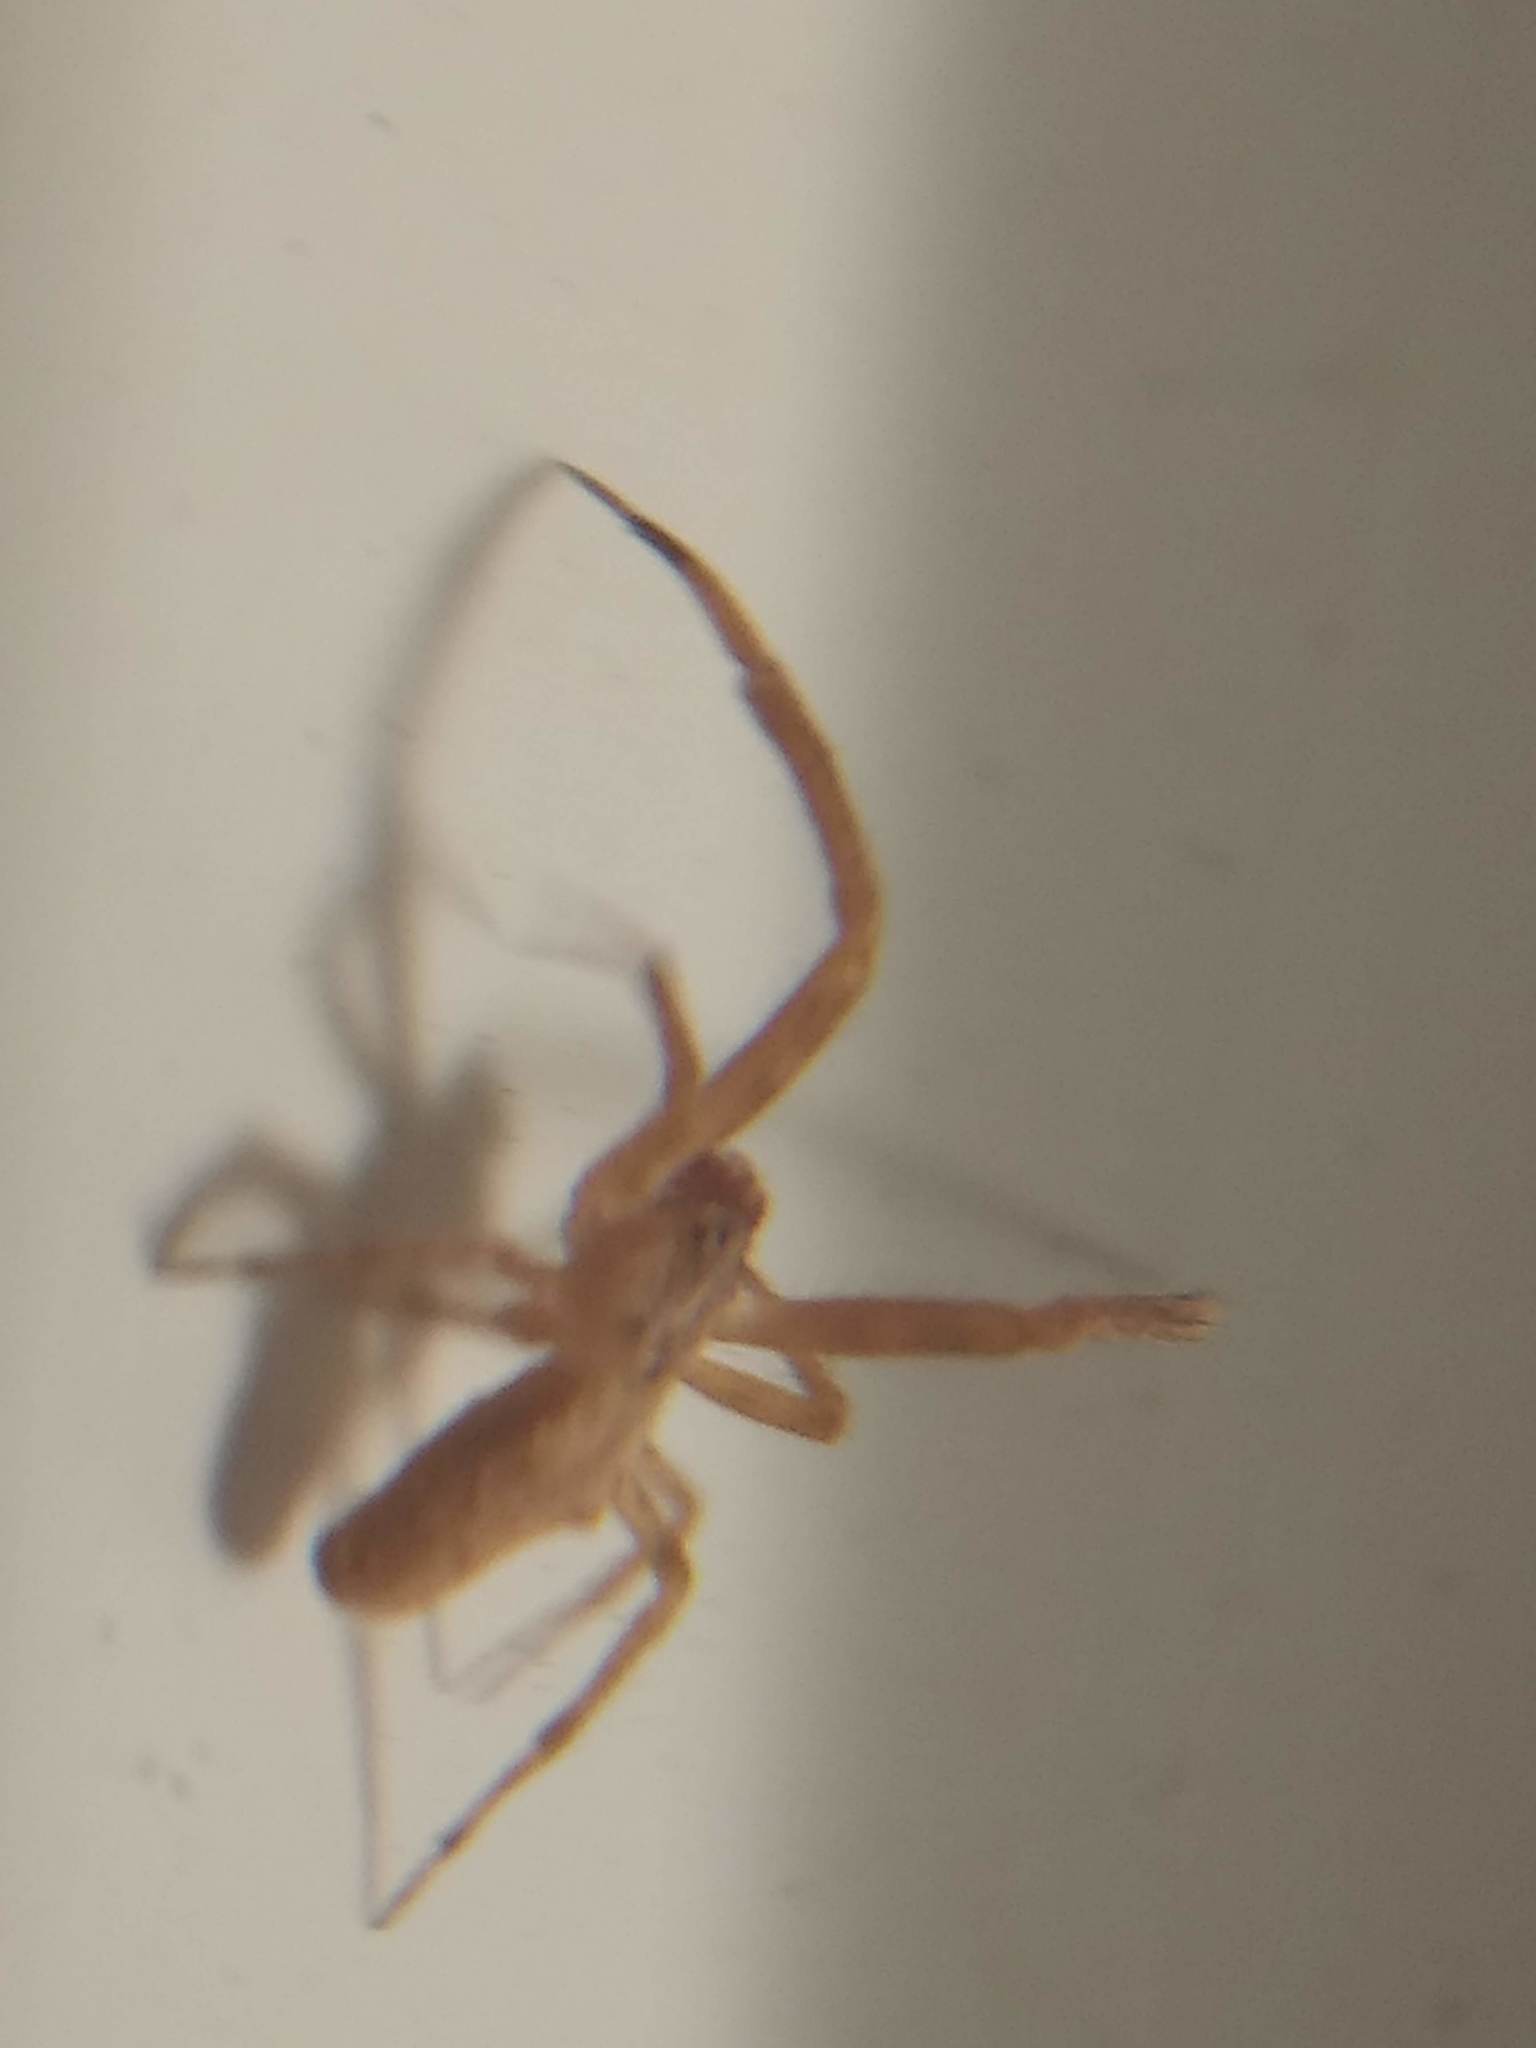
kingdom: Animalia
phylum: Arthropoda
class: Arachnida
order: Araneae
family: Uloboridae
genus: Uloborus
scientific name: Uloborus diversus
